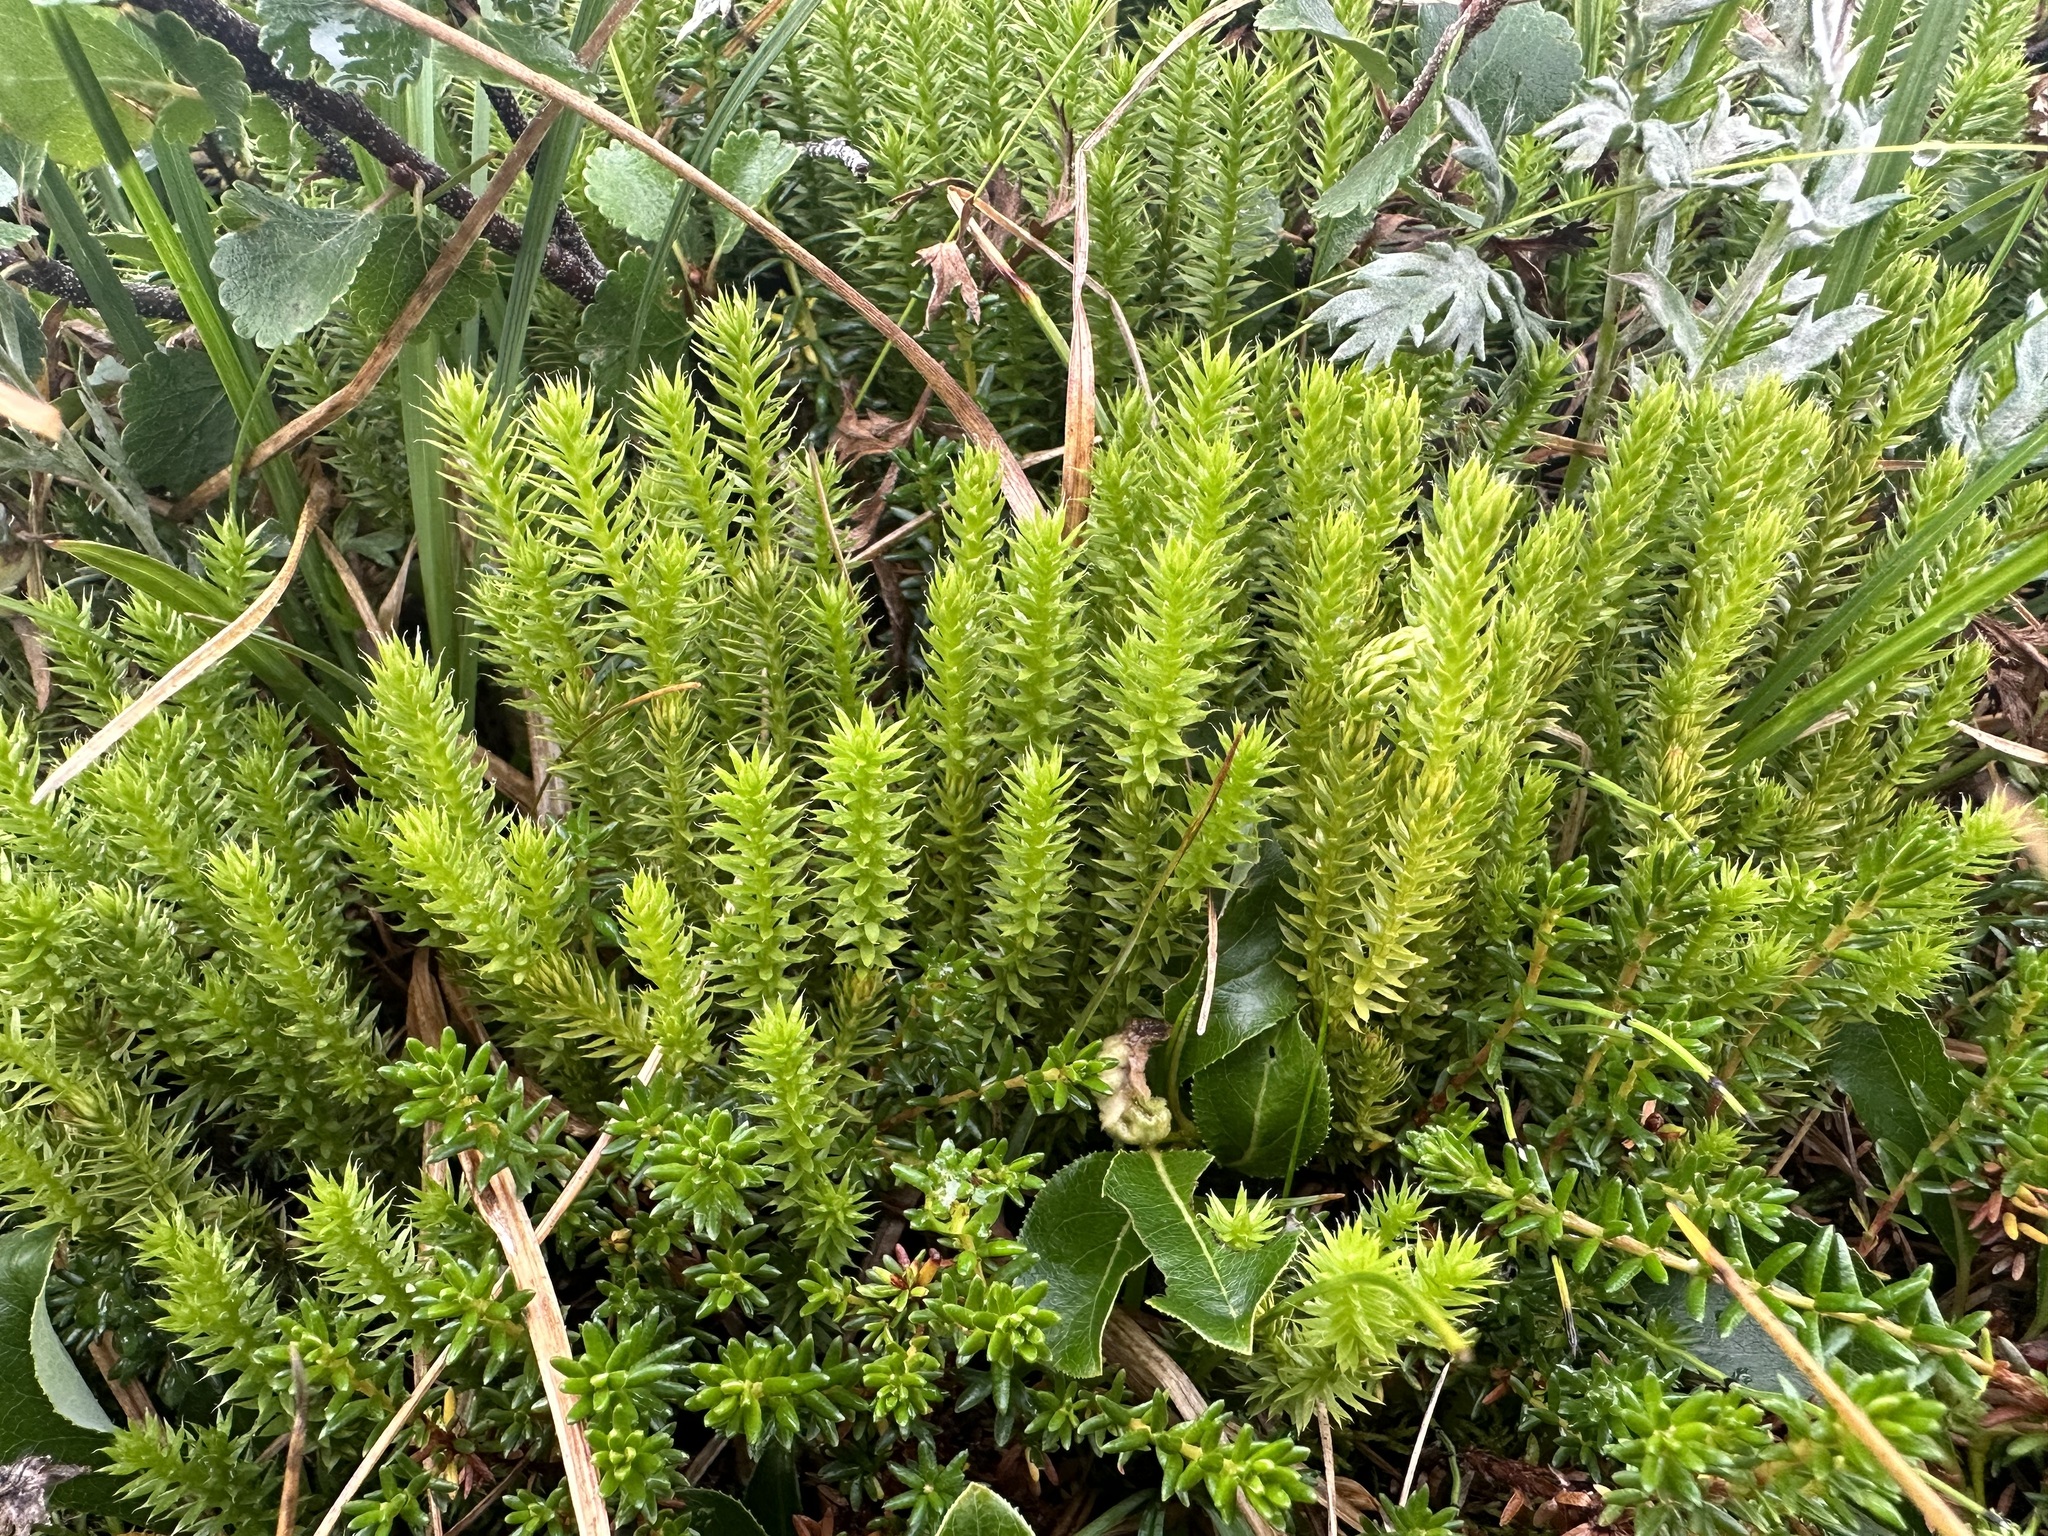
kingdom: Plantae
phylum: Tracheophyta
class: Lycopodiopsida
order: Lycopodiales
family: Lycopodiaceae
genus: Spinulum
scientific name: Spinulum annotinum
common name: Interrupted club-moss
